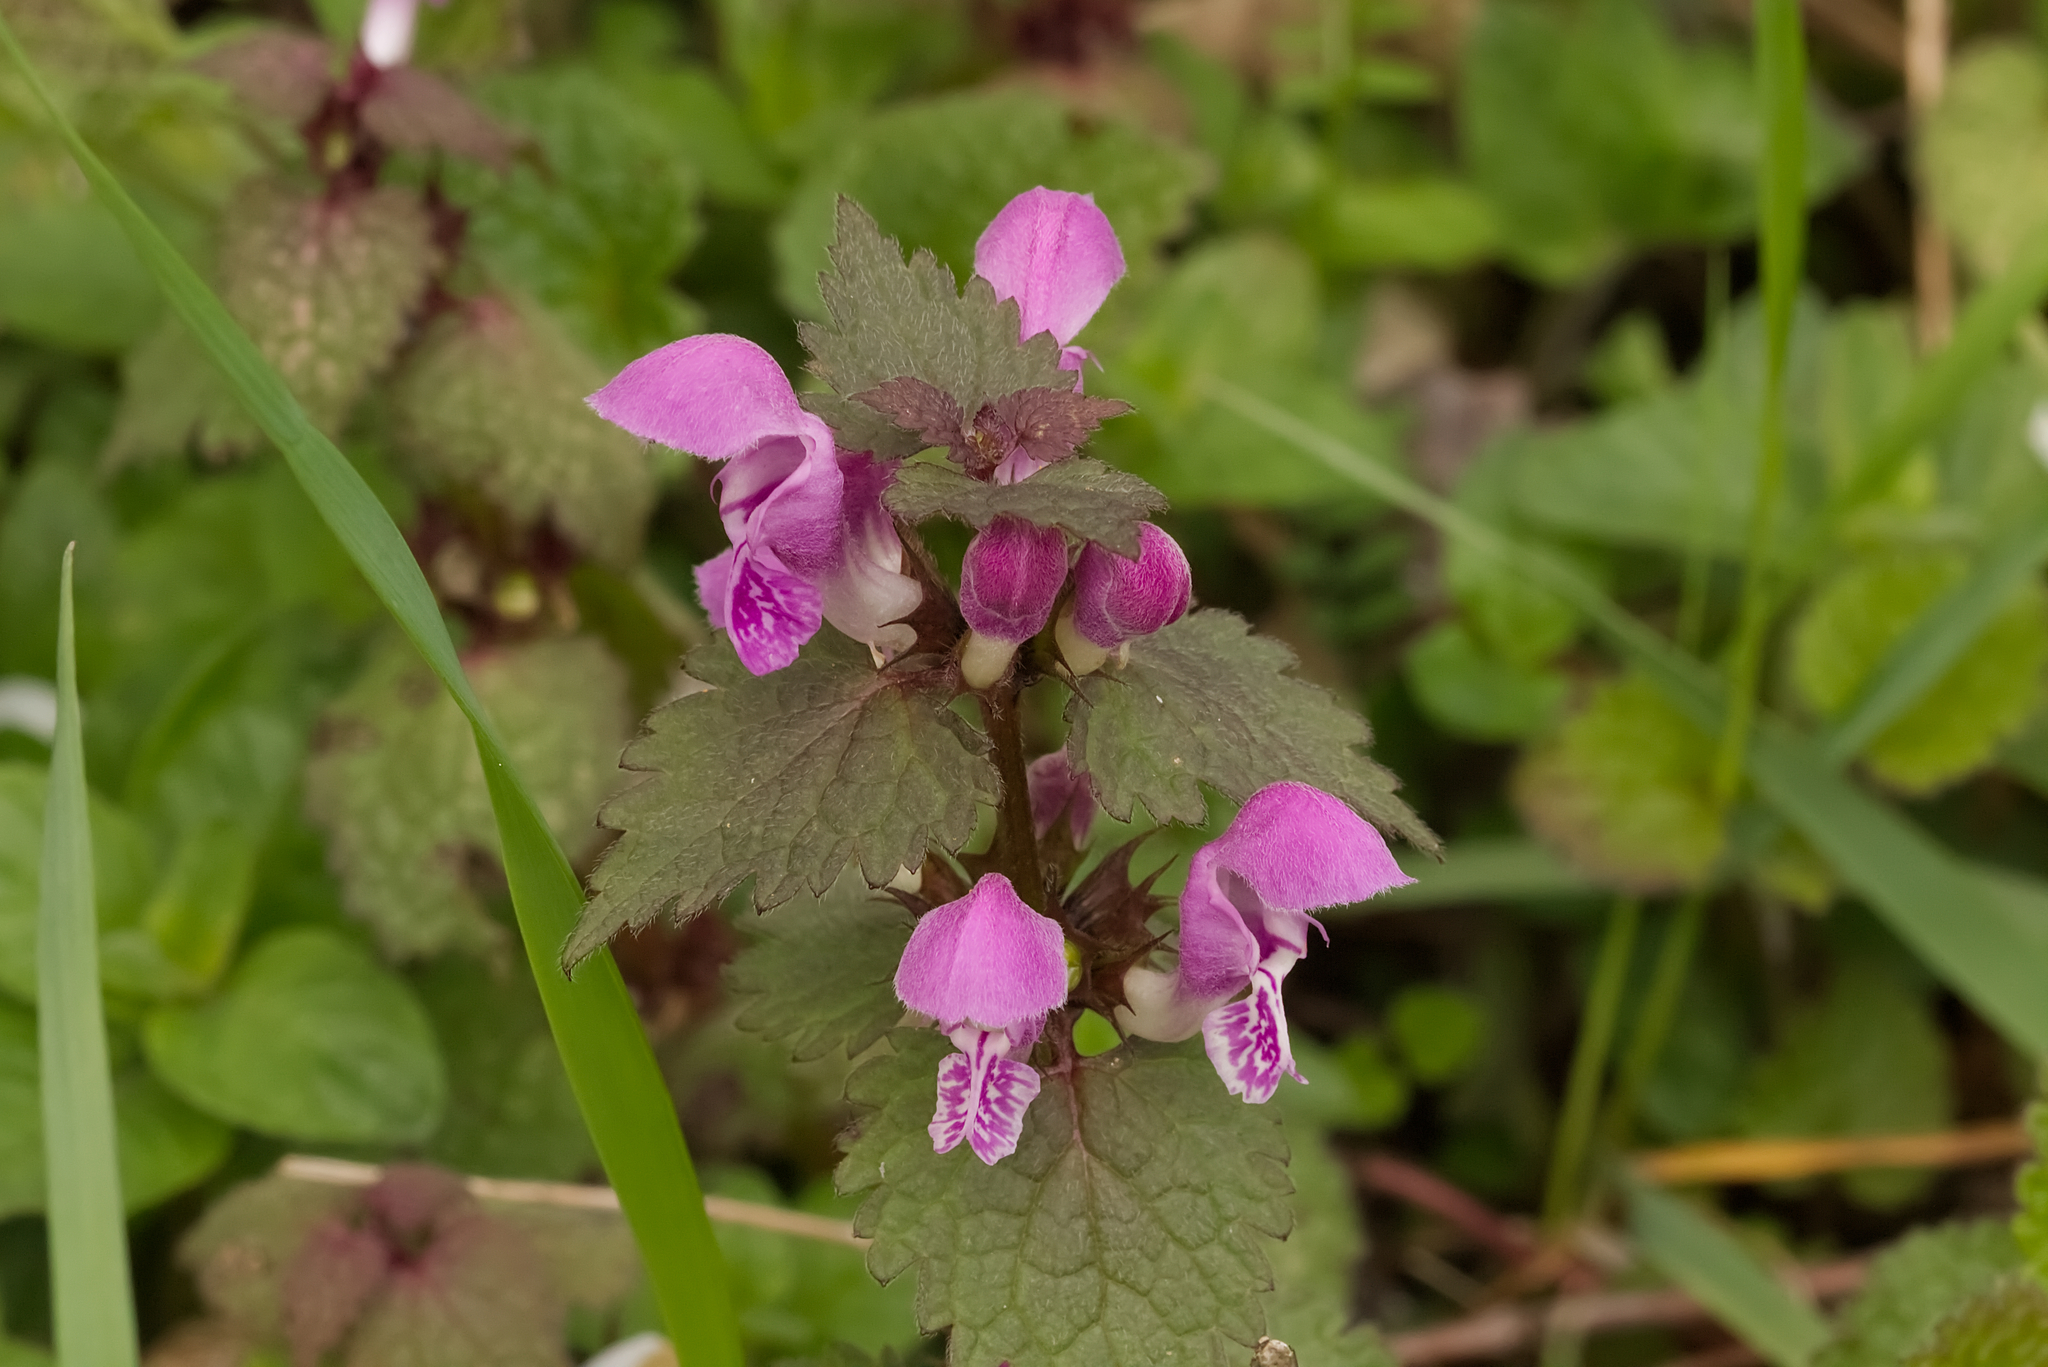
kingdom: Plantae
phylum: Tracheophyta
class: Magnoliopsida
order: Lamiales
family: Lamiaceae
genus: Lamium
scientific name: Lamium maculatum
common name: Spotted dead-nettle
